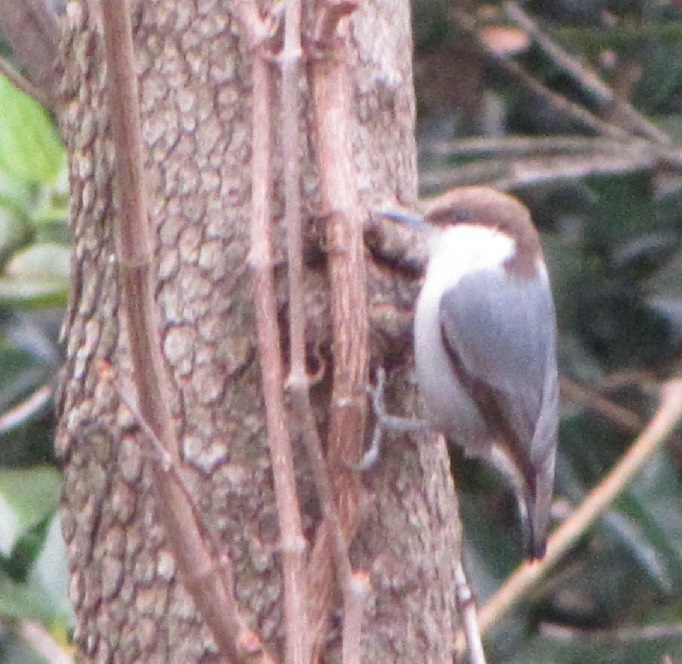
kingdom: Animalia
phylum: Chordata
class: Aves
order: Passeriformes
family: Sittidae
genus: Sitta
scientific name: Sitta pusilla
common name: Brown-headed nuthatch
